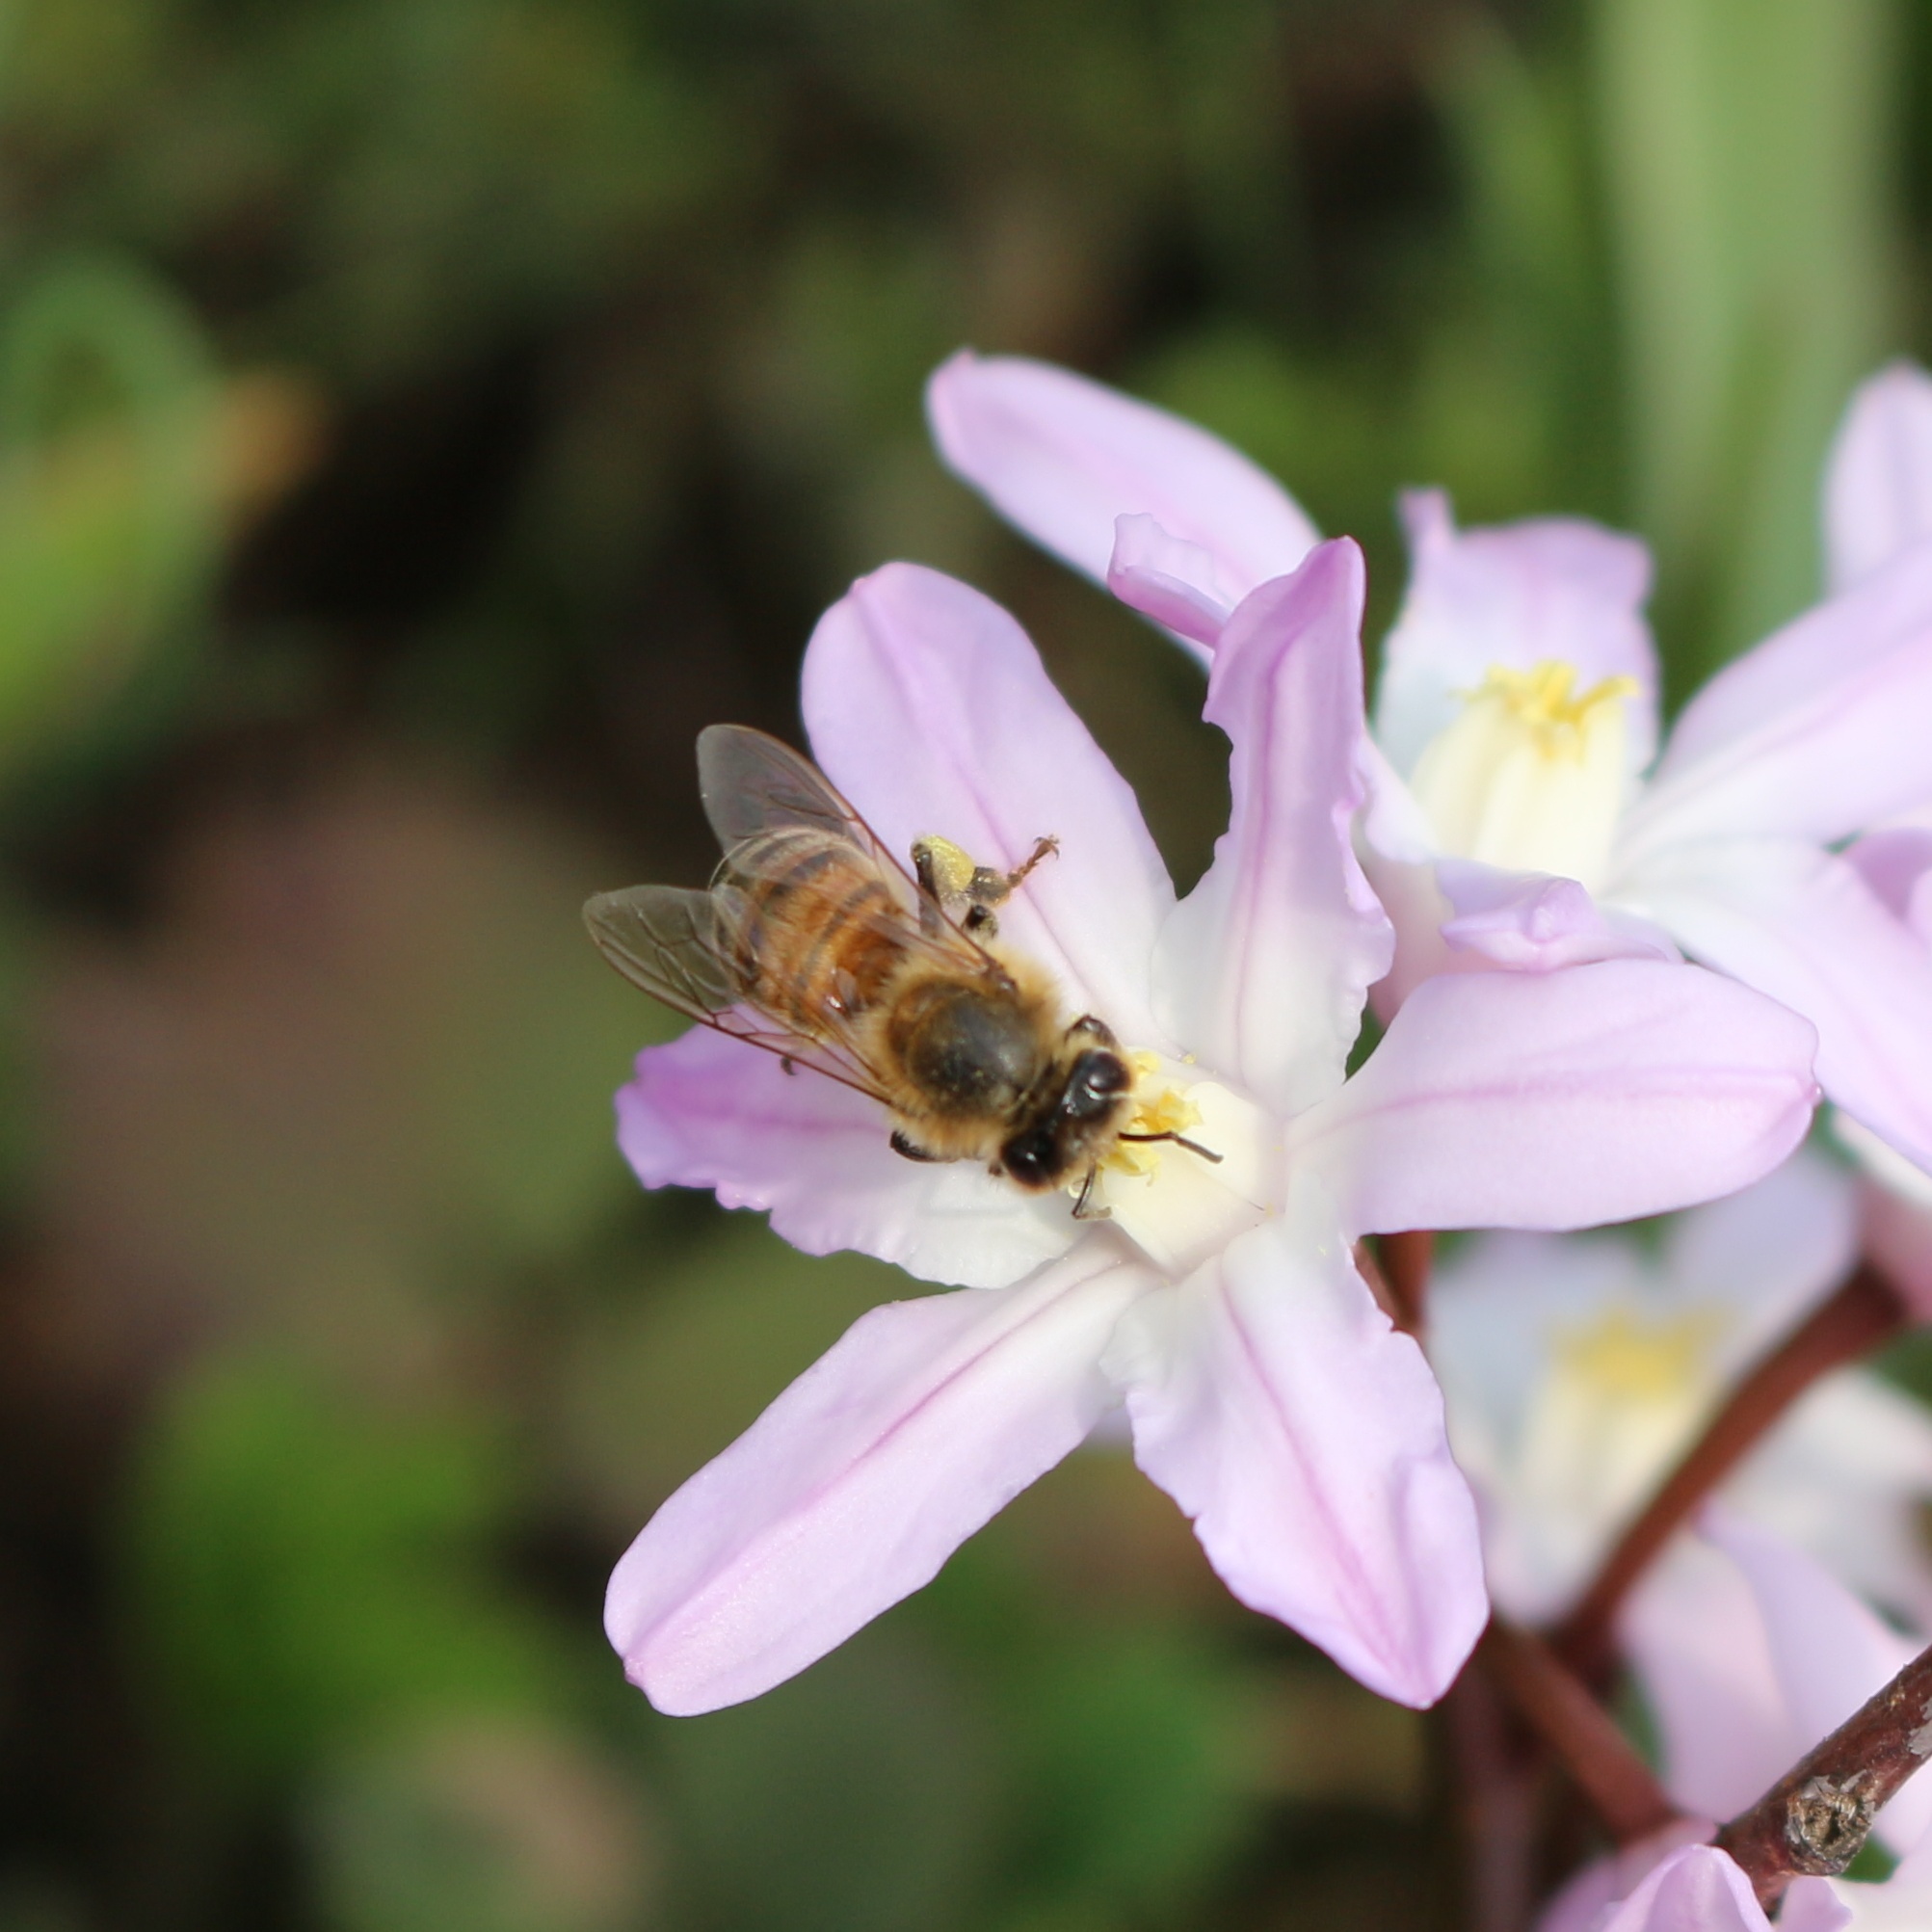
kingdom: Animalia
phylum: Arthropoda
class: Insecta
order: Hymenoptera
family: Apidae
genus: Apis
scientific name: Apis mellifera
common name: Honey bee
